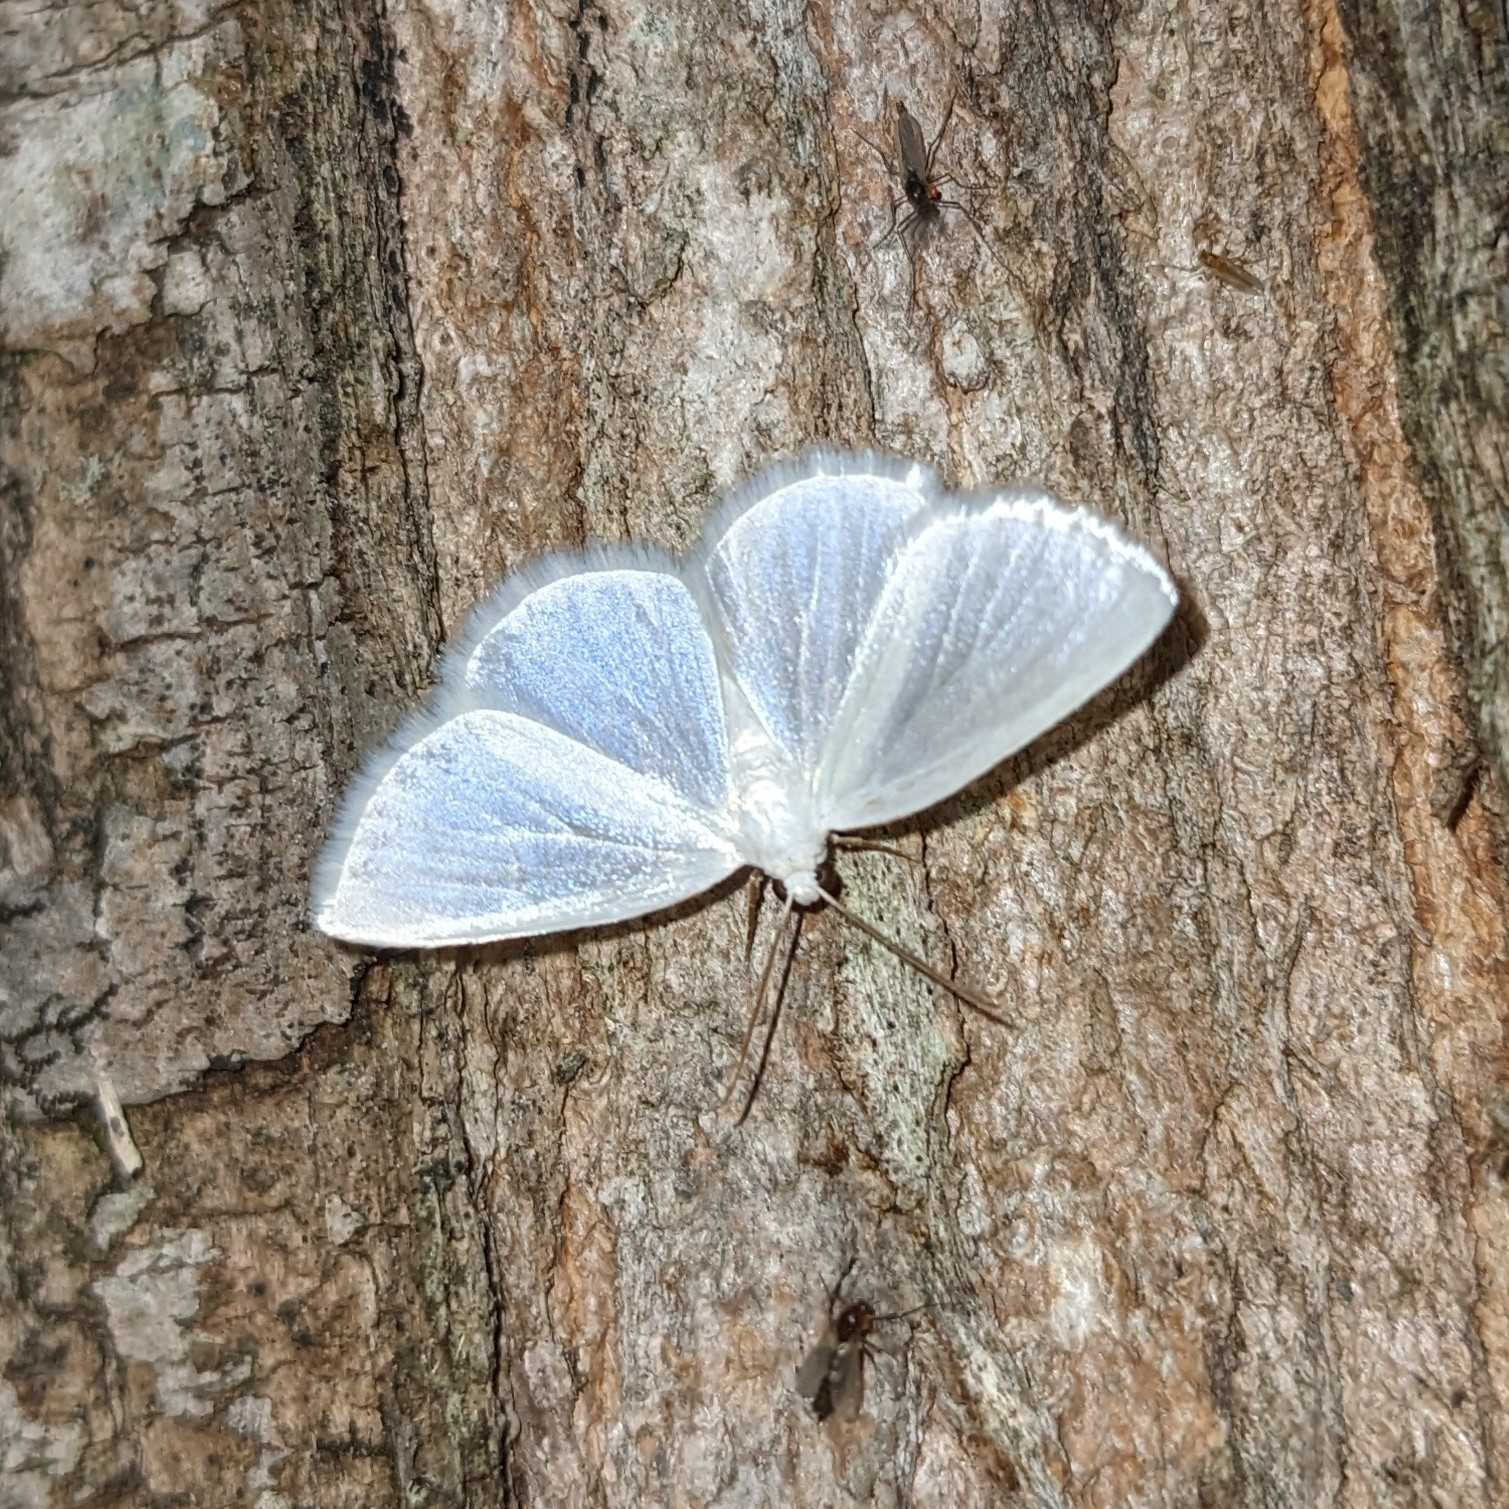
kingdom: Animalia
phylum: Arthropoda
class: Insecta
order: Lepidoptera
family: Geometridae
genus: Lomographa
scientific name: Lomographa vestaliata
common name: White spring moth
